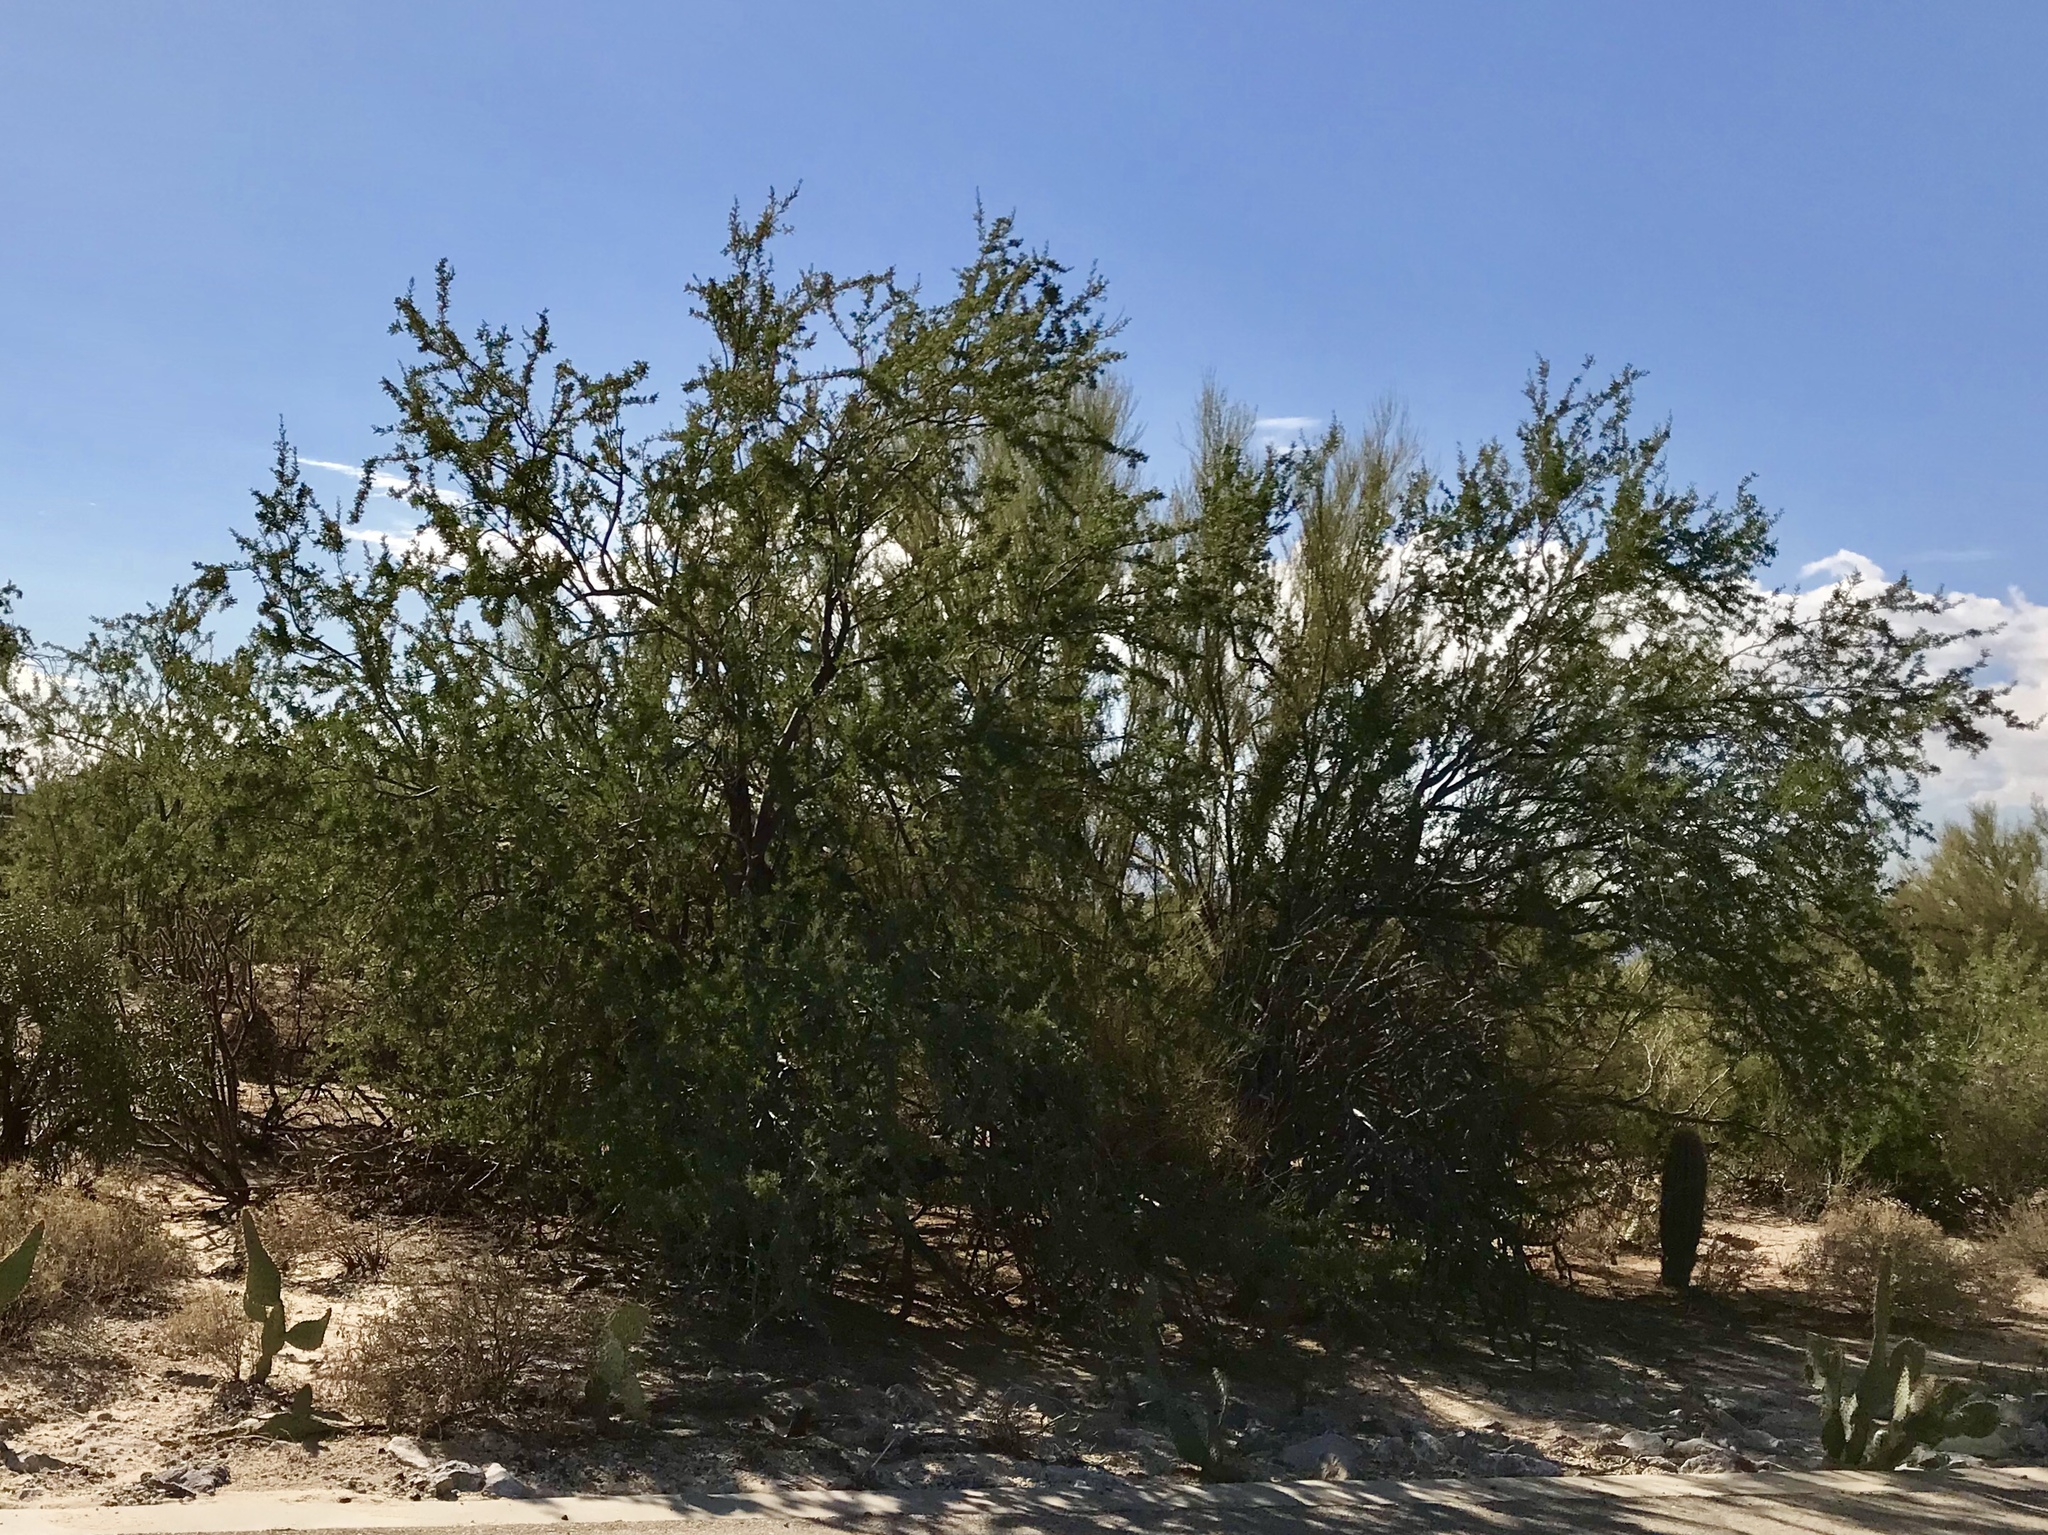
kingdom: Plantae
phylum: Tracheophyta
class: Magnoliopsida
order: Fabales
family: Fabaceae
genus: Olneya
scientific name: Olneya tesota
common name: Desert ironwood
